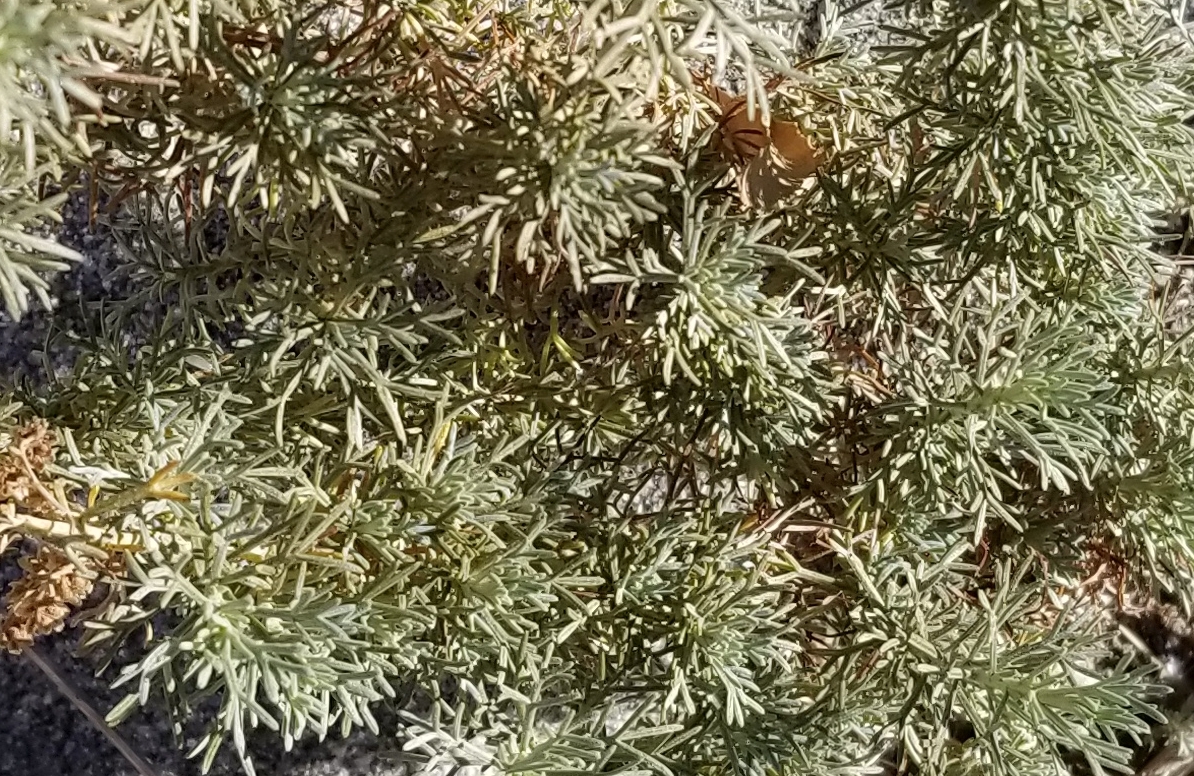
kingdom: Plantae
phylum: Tracheophyta
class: Magnoliopsida
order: Asterales
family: Asteraceae
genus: Artemisia
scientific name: Artemisia californica
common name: California sagebrush
